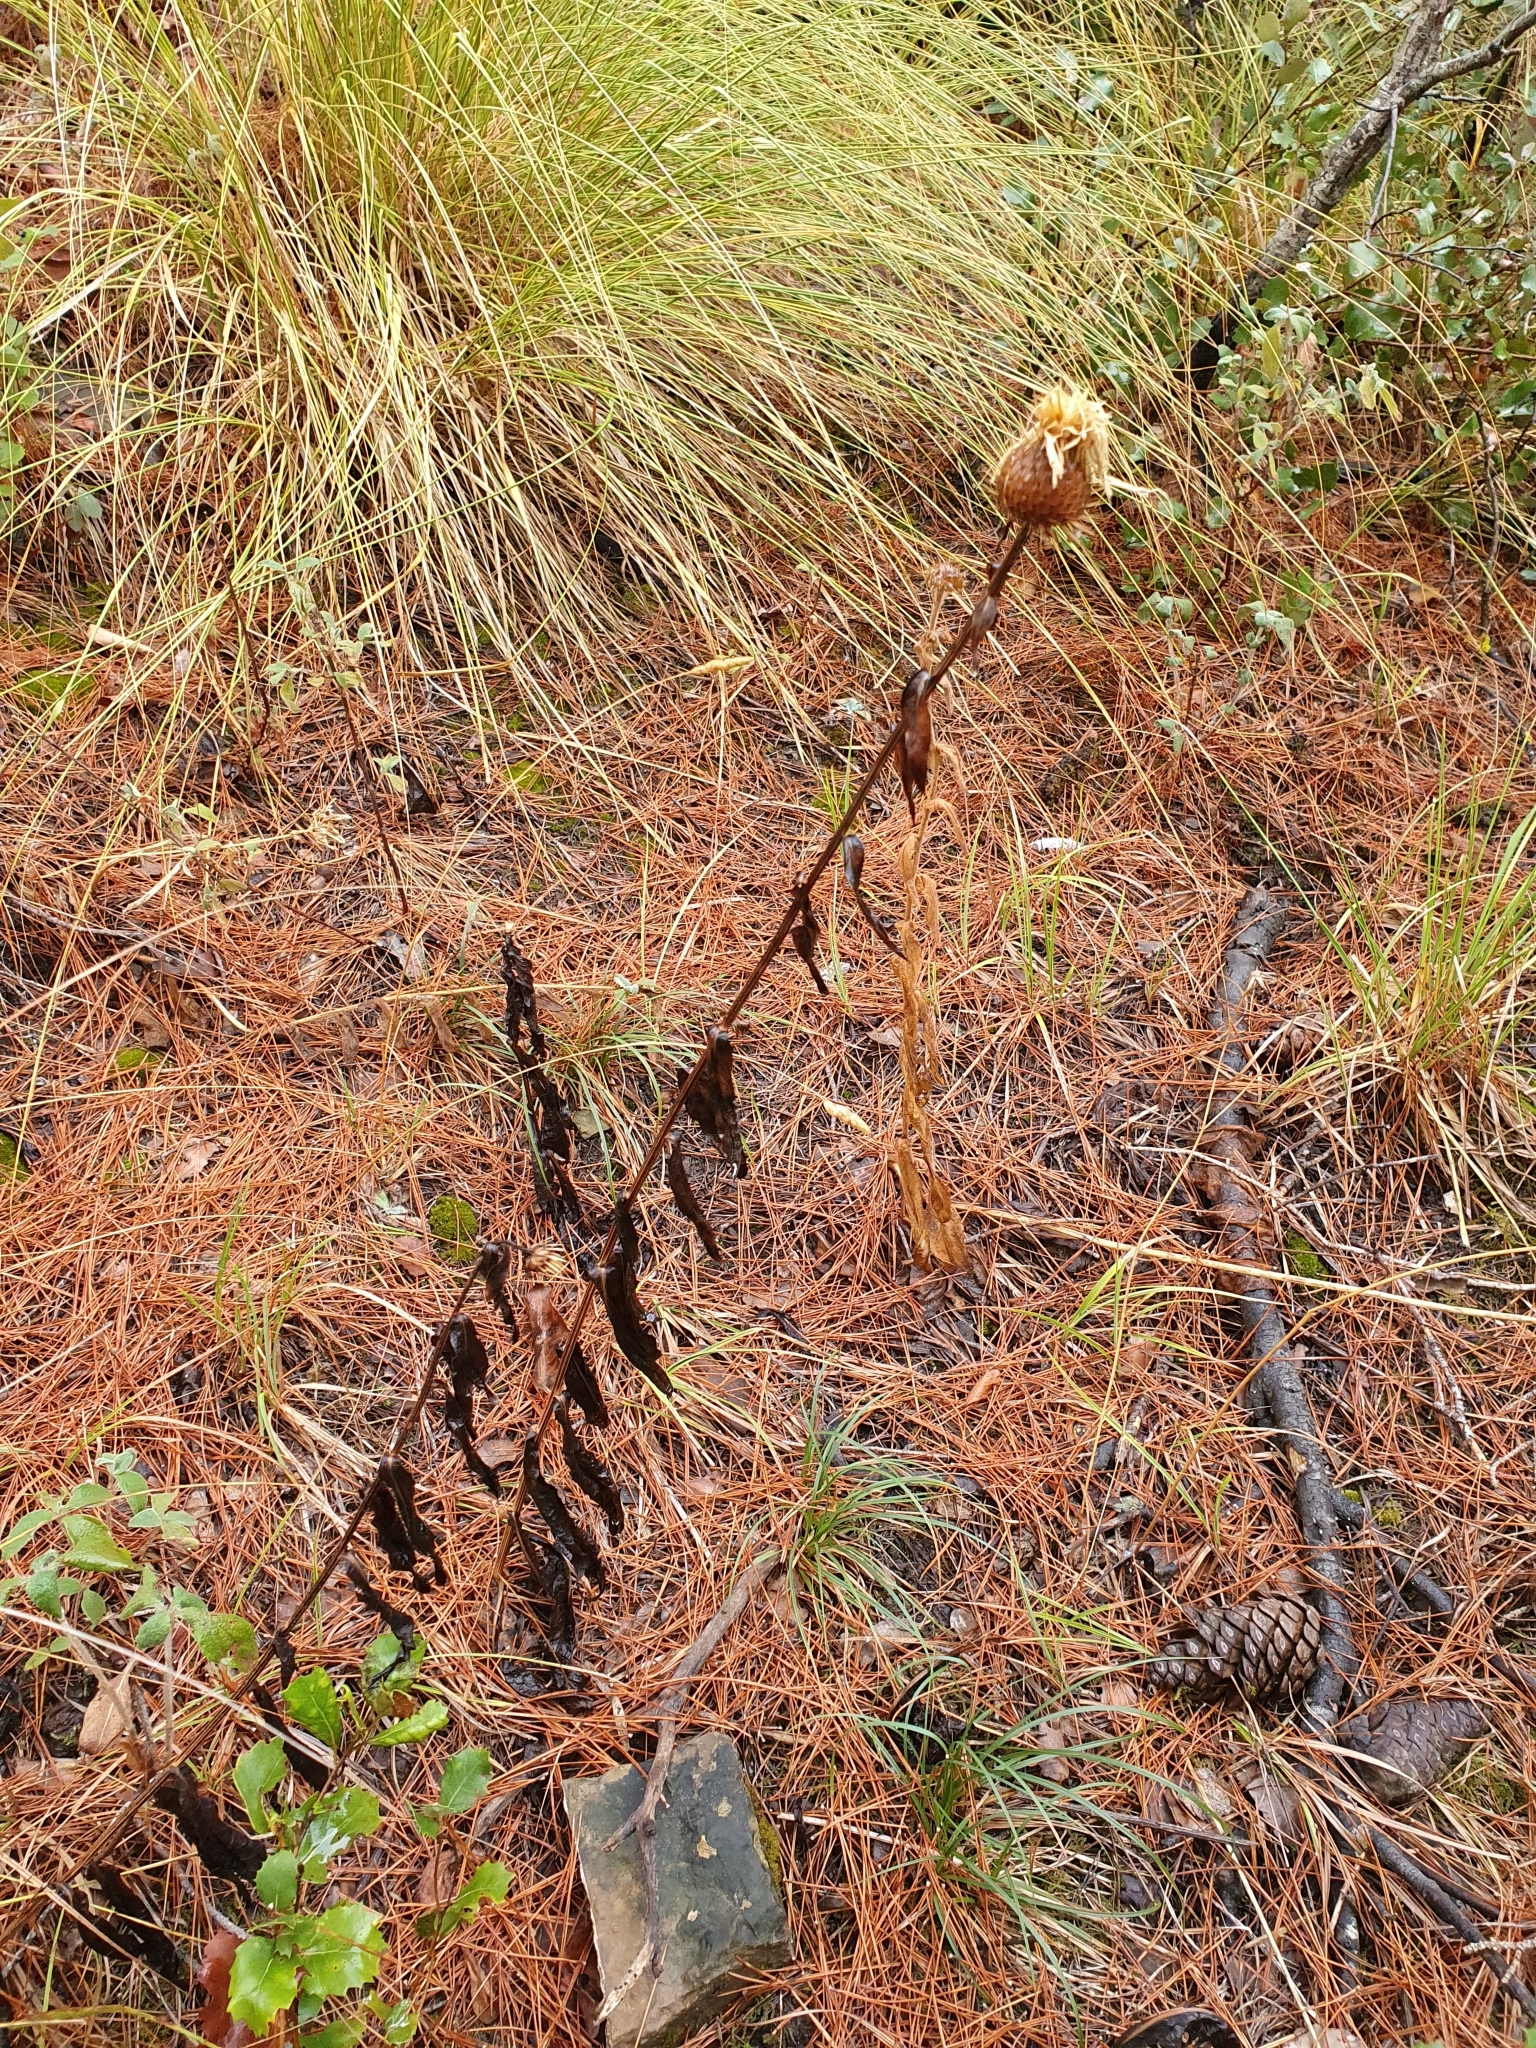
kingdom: Plantae
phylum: Tracheophyta
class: Magnoliopsida
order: Asterales
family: Asteraceae
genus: Klasea
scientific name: Klasea flavescens
